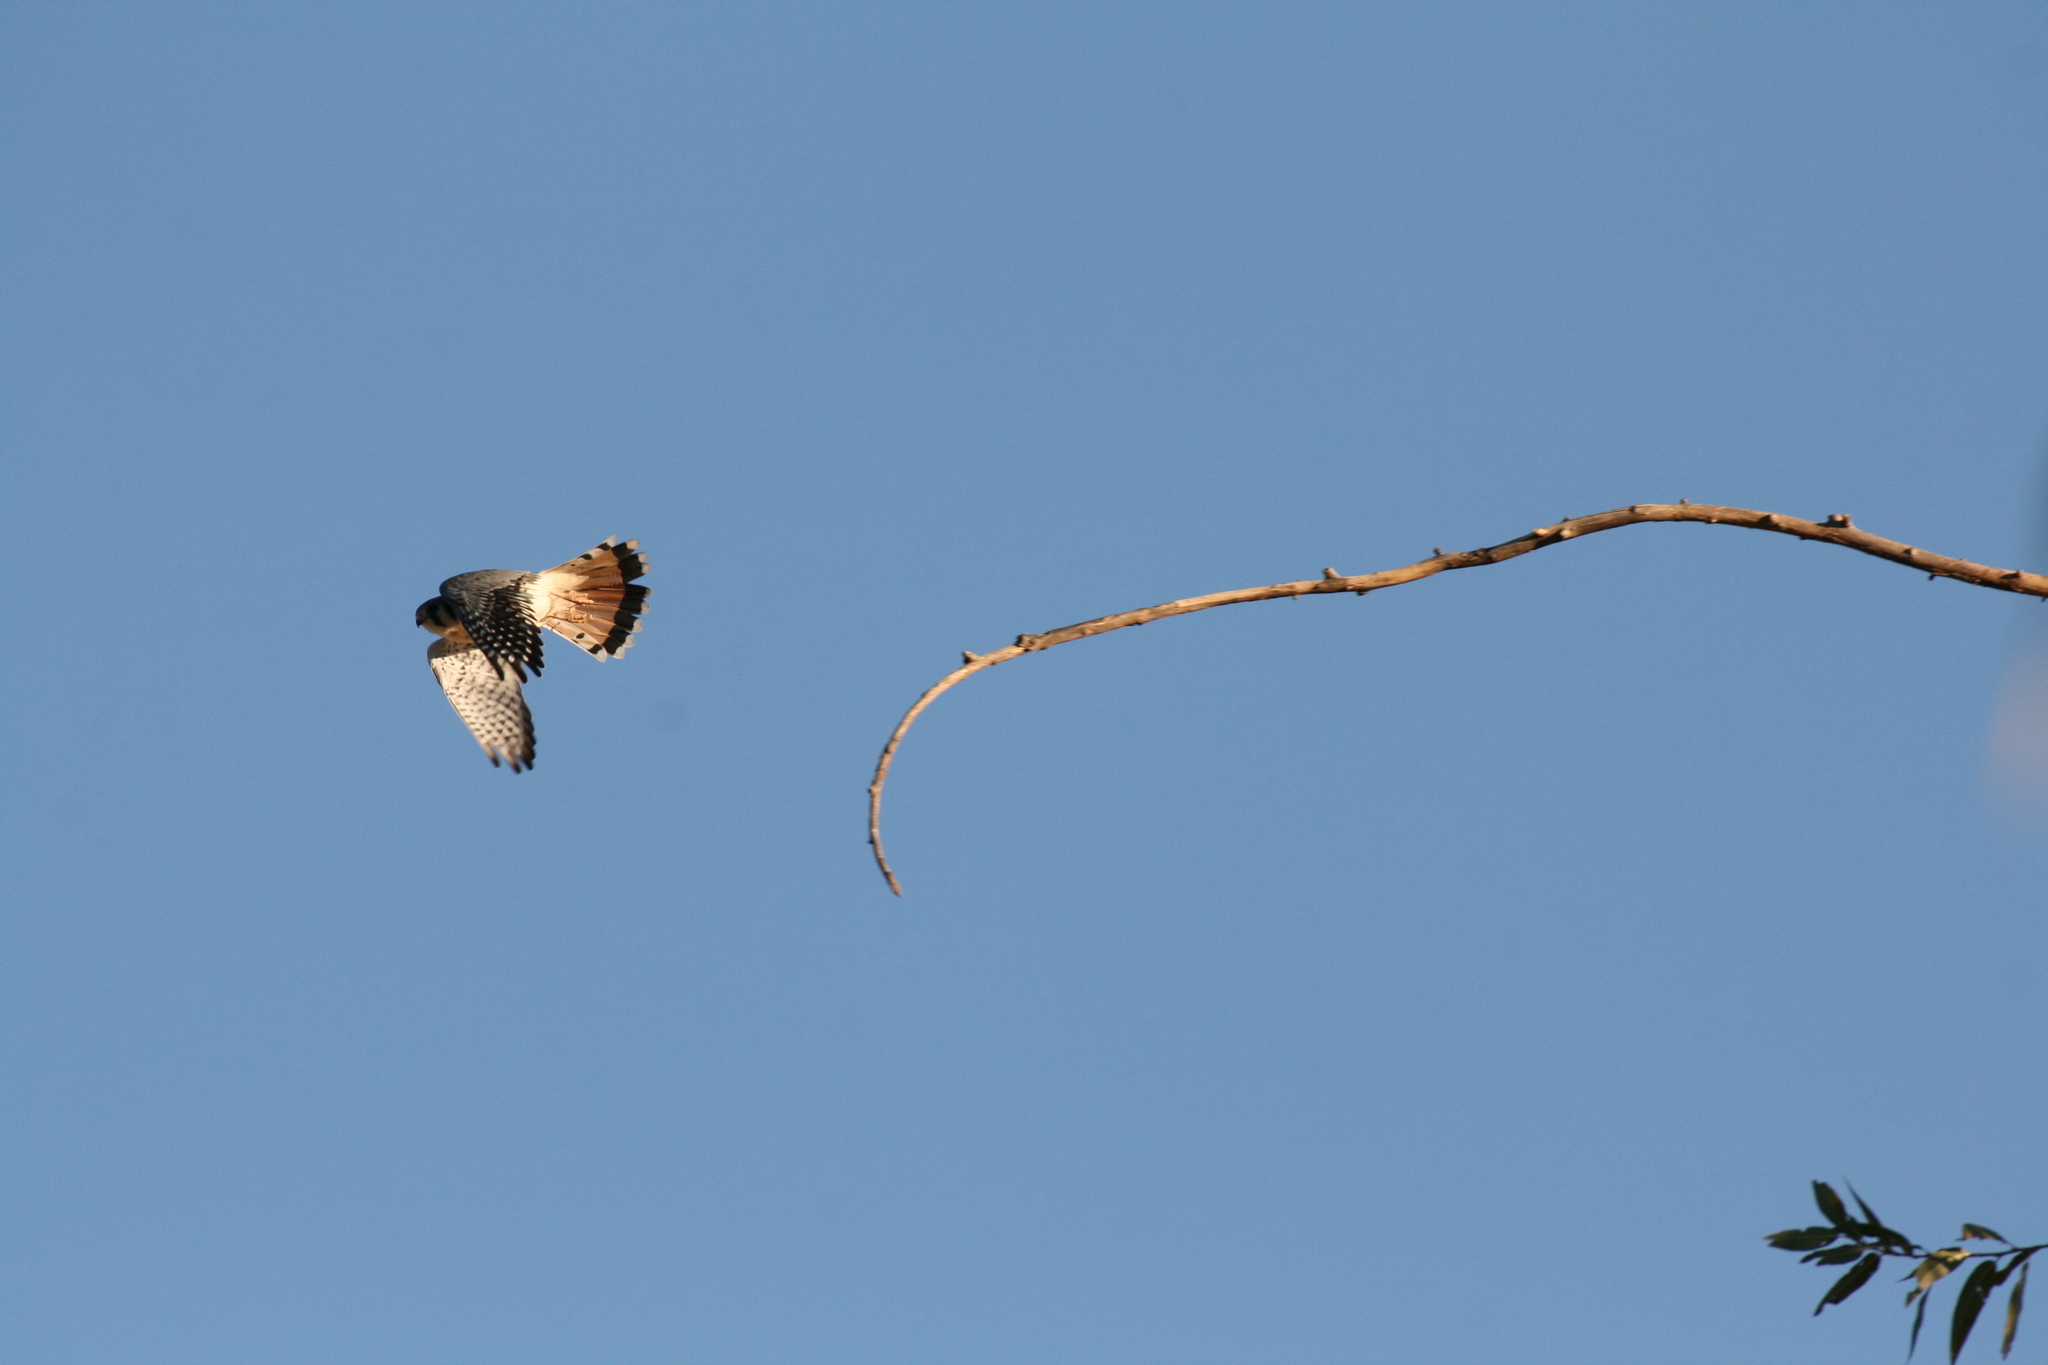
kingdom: Animalia
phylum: Chordata
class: Aves
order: Falconiformes
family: Falconidae
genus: Falco
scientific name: Falco sparverius
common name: American kestrel
